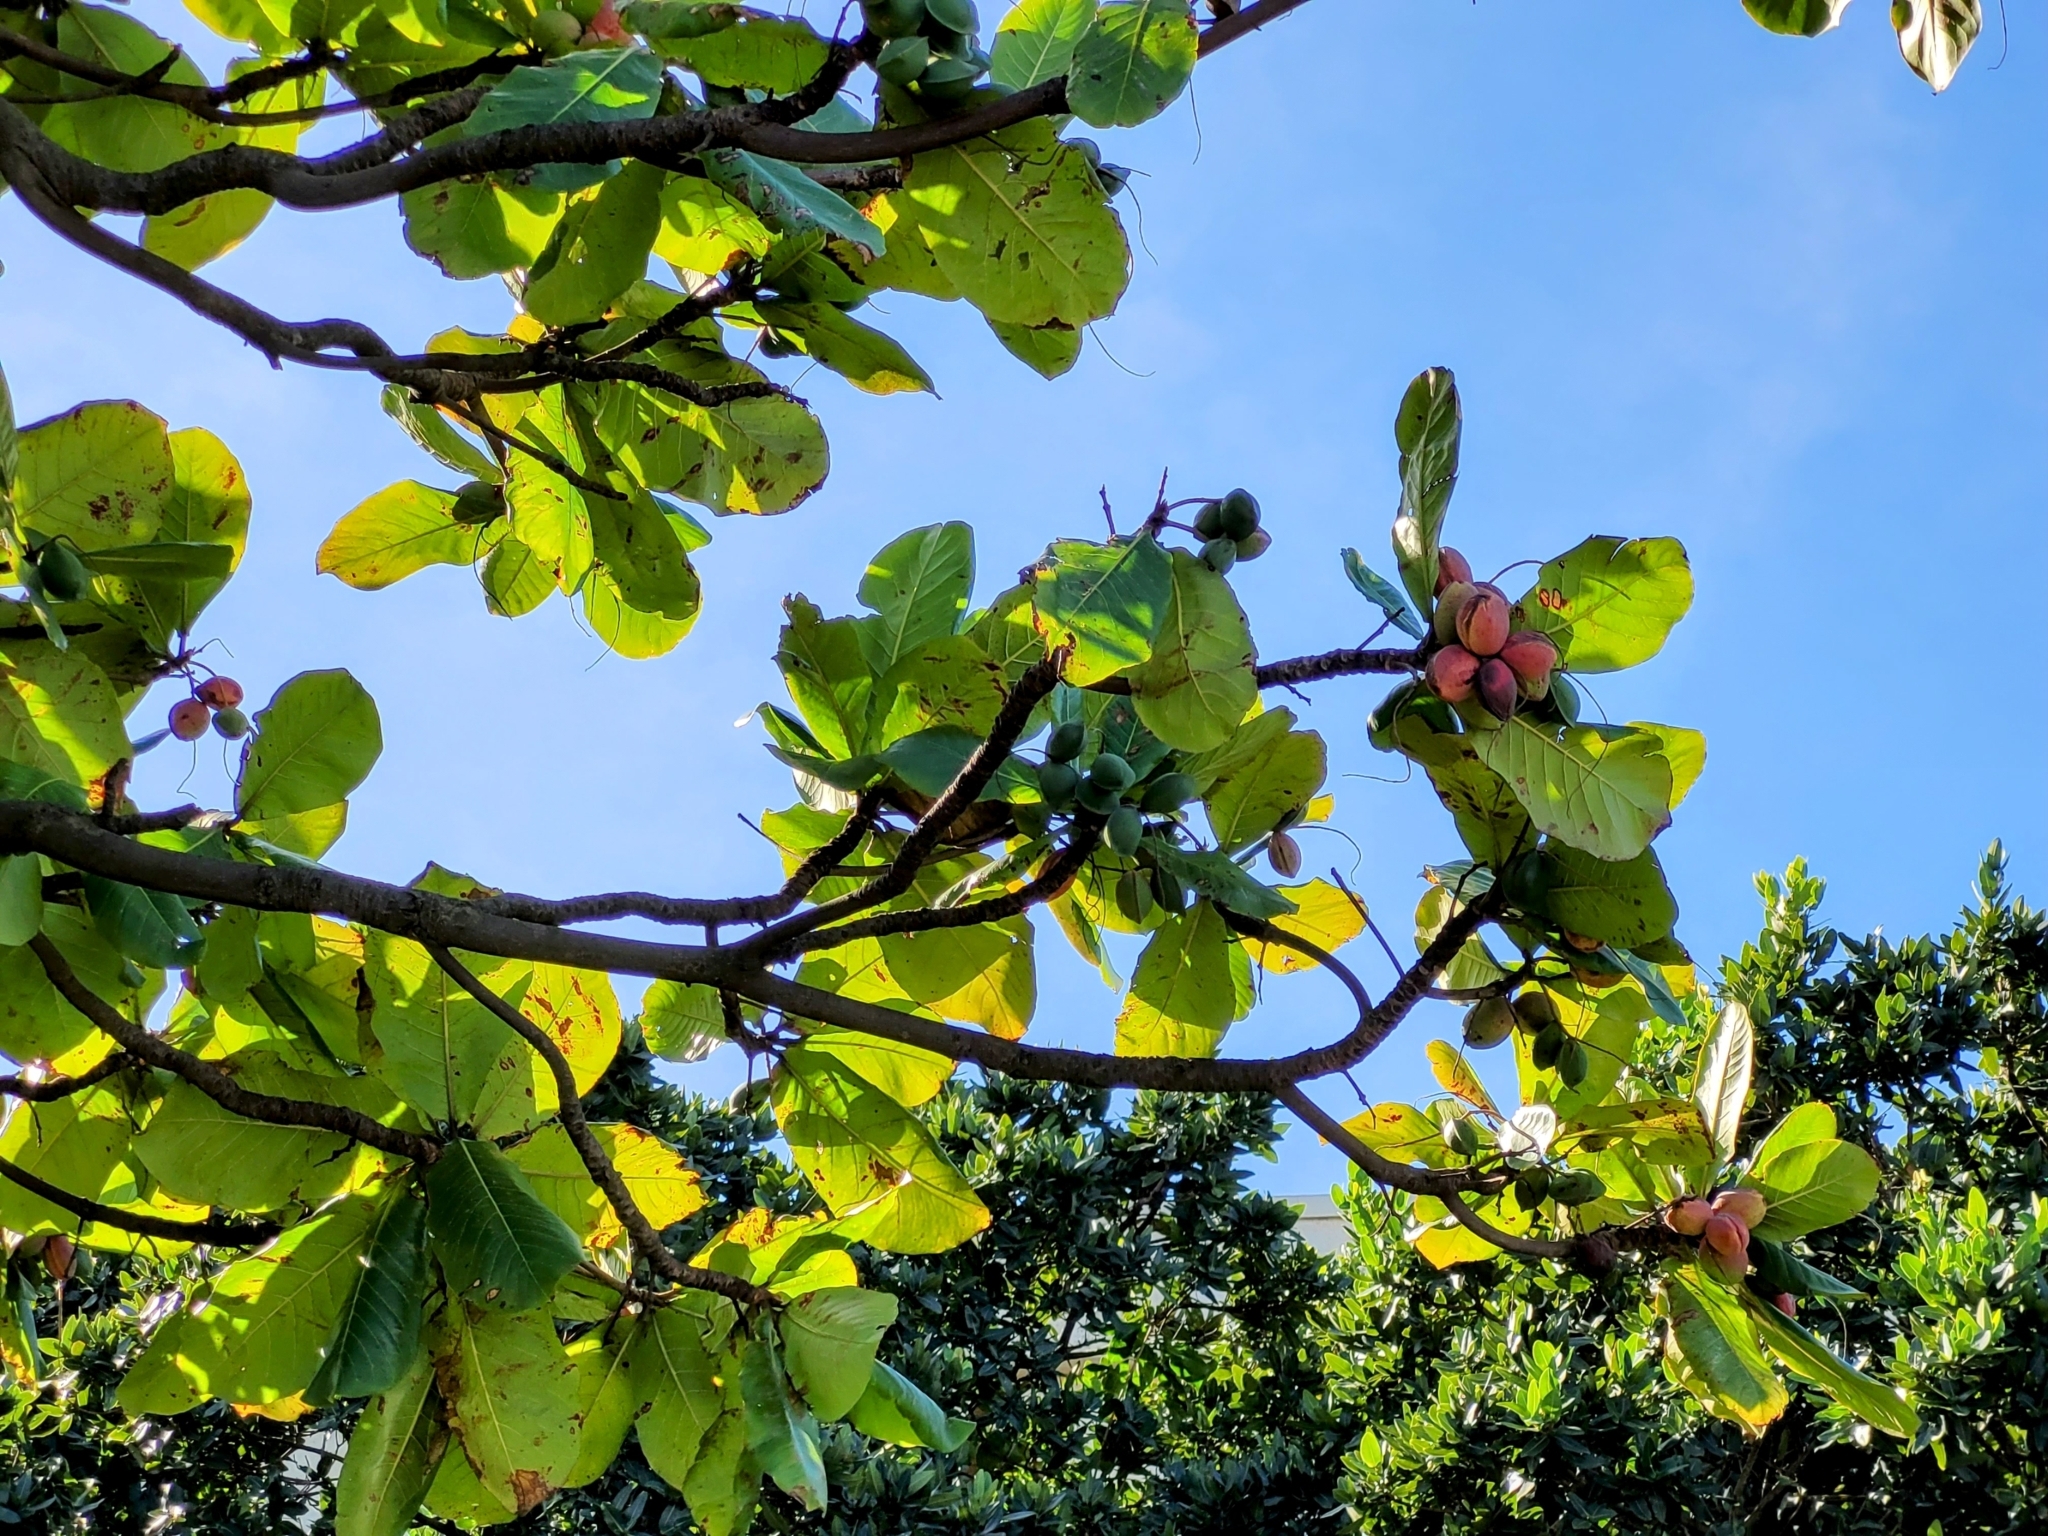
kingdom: Plantae
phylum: Tracheophyta
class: Magnoliopsida
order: Myrtales
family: Combretaceae
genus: Terminalia
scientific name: Terminalia catappa
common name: Tropical almond
